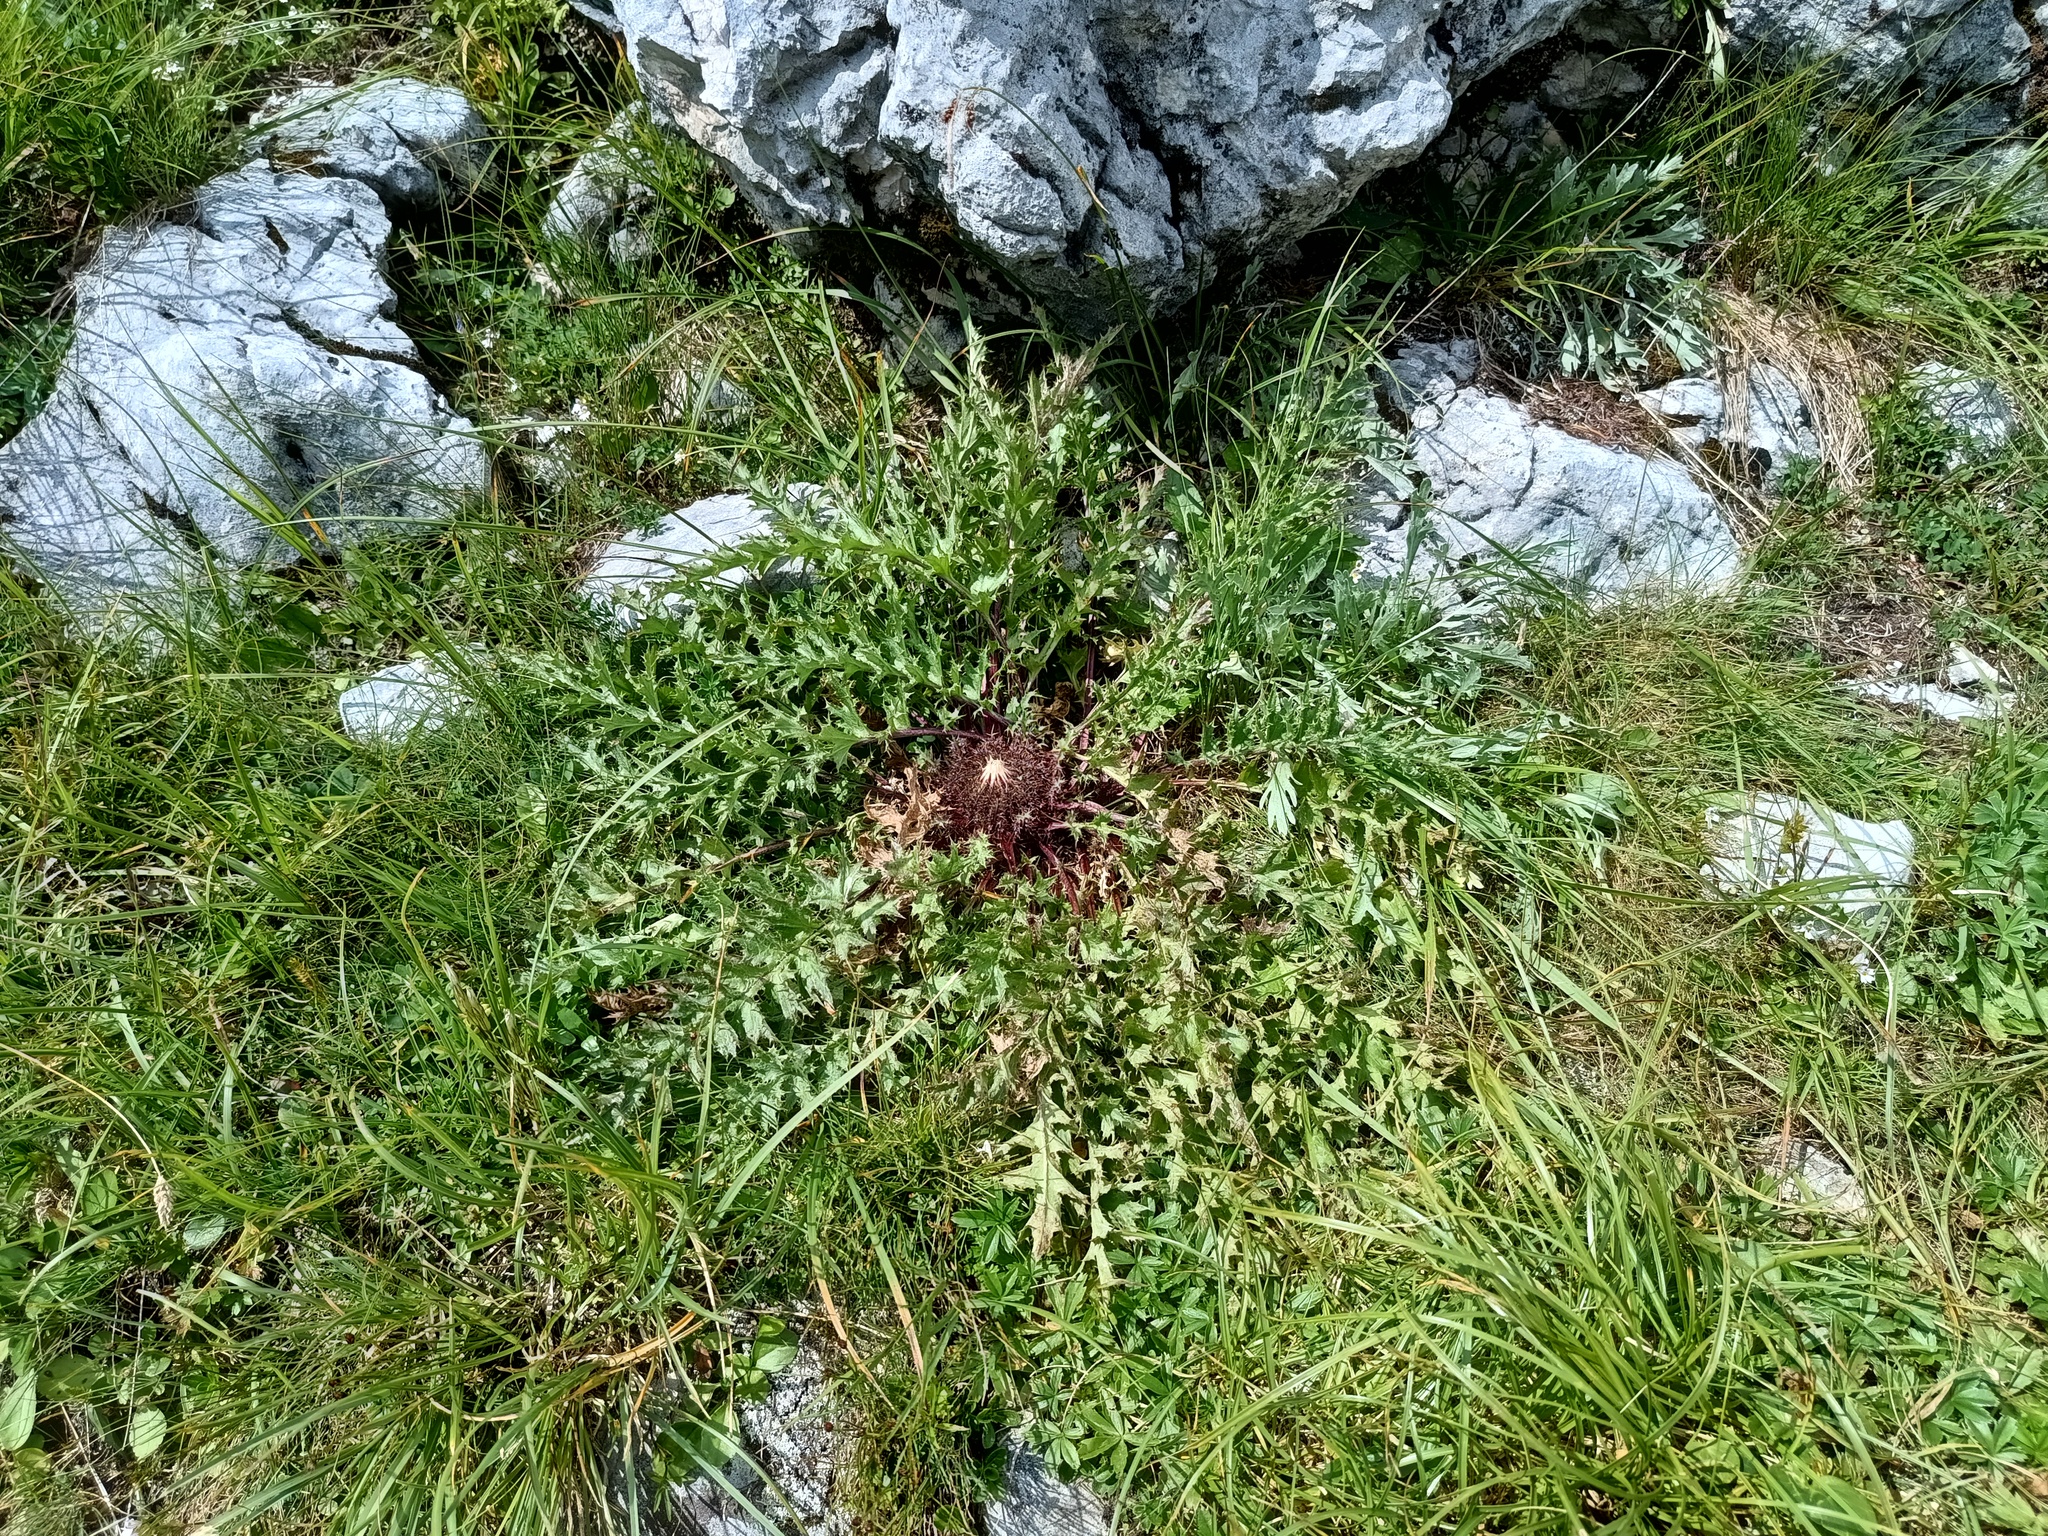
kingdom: Plantae
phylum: Tracheophyta
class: Magnoliopsida
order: Asterales
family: Asteraceae
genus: Carlina
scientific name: Carlina acaulis
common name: Stemless carline thistle
